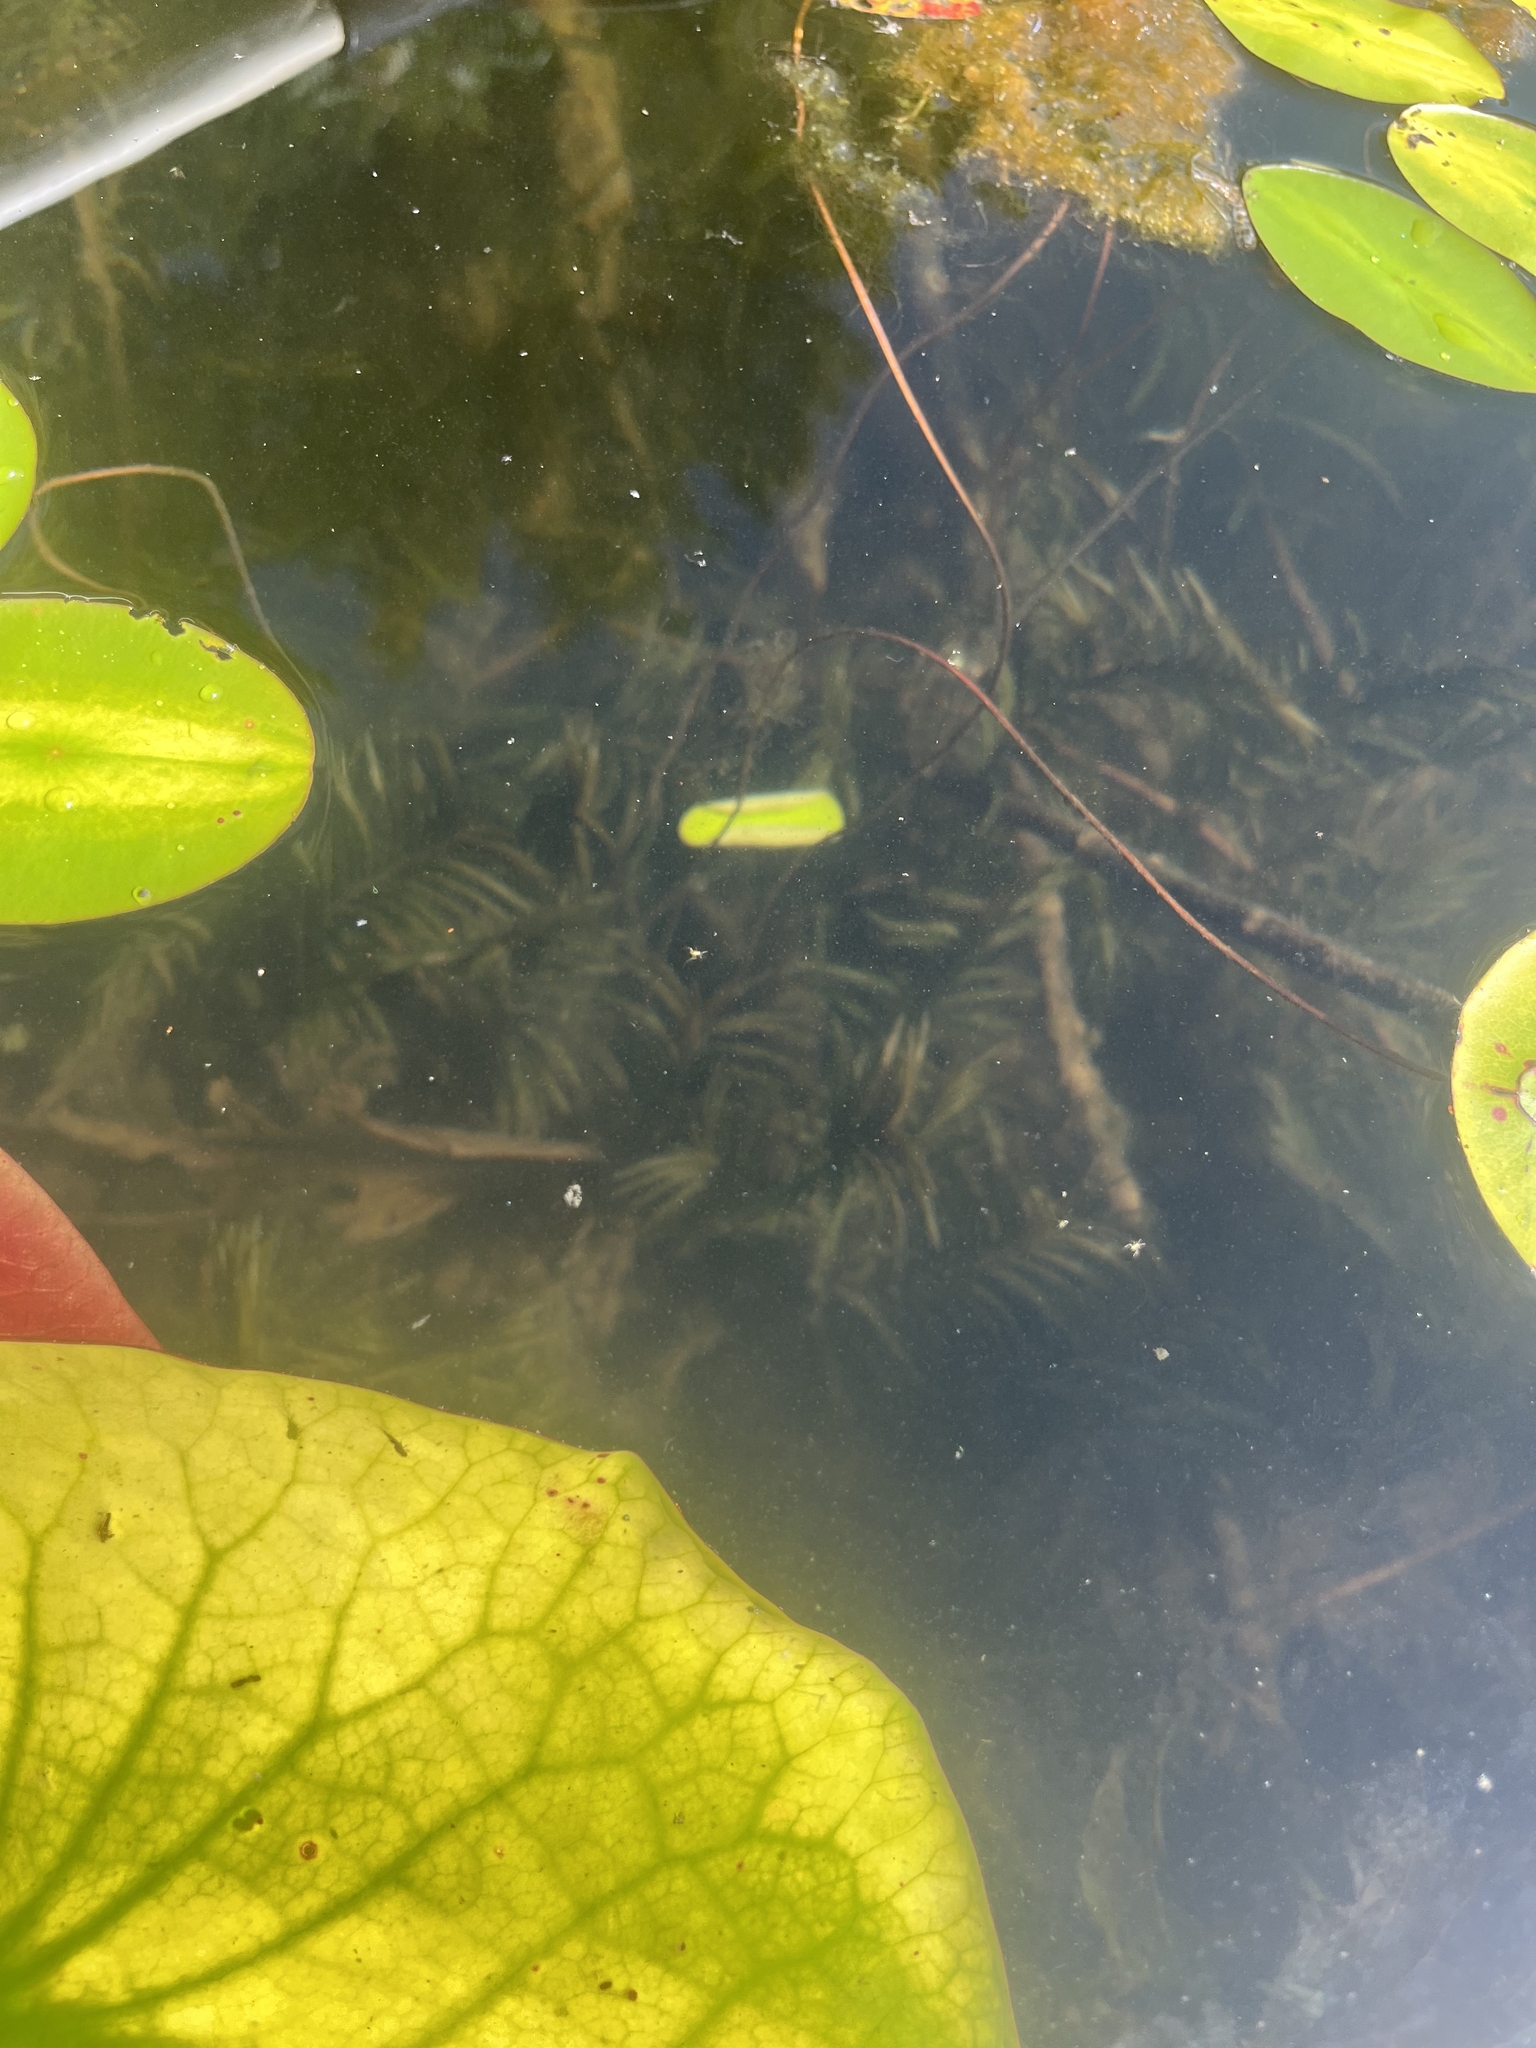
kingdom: Plantae
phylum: Tracheophyta
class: Liliopsida
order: Alismatales
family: Potamogetonaceae
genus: Potamogeton
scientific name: Potamogeton robbinsii
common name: Fern pondweed
